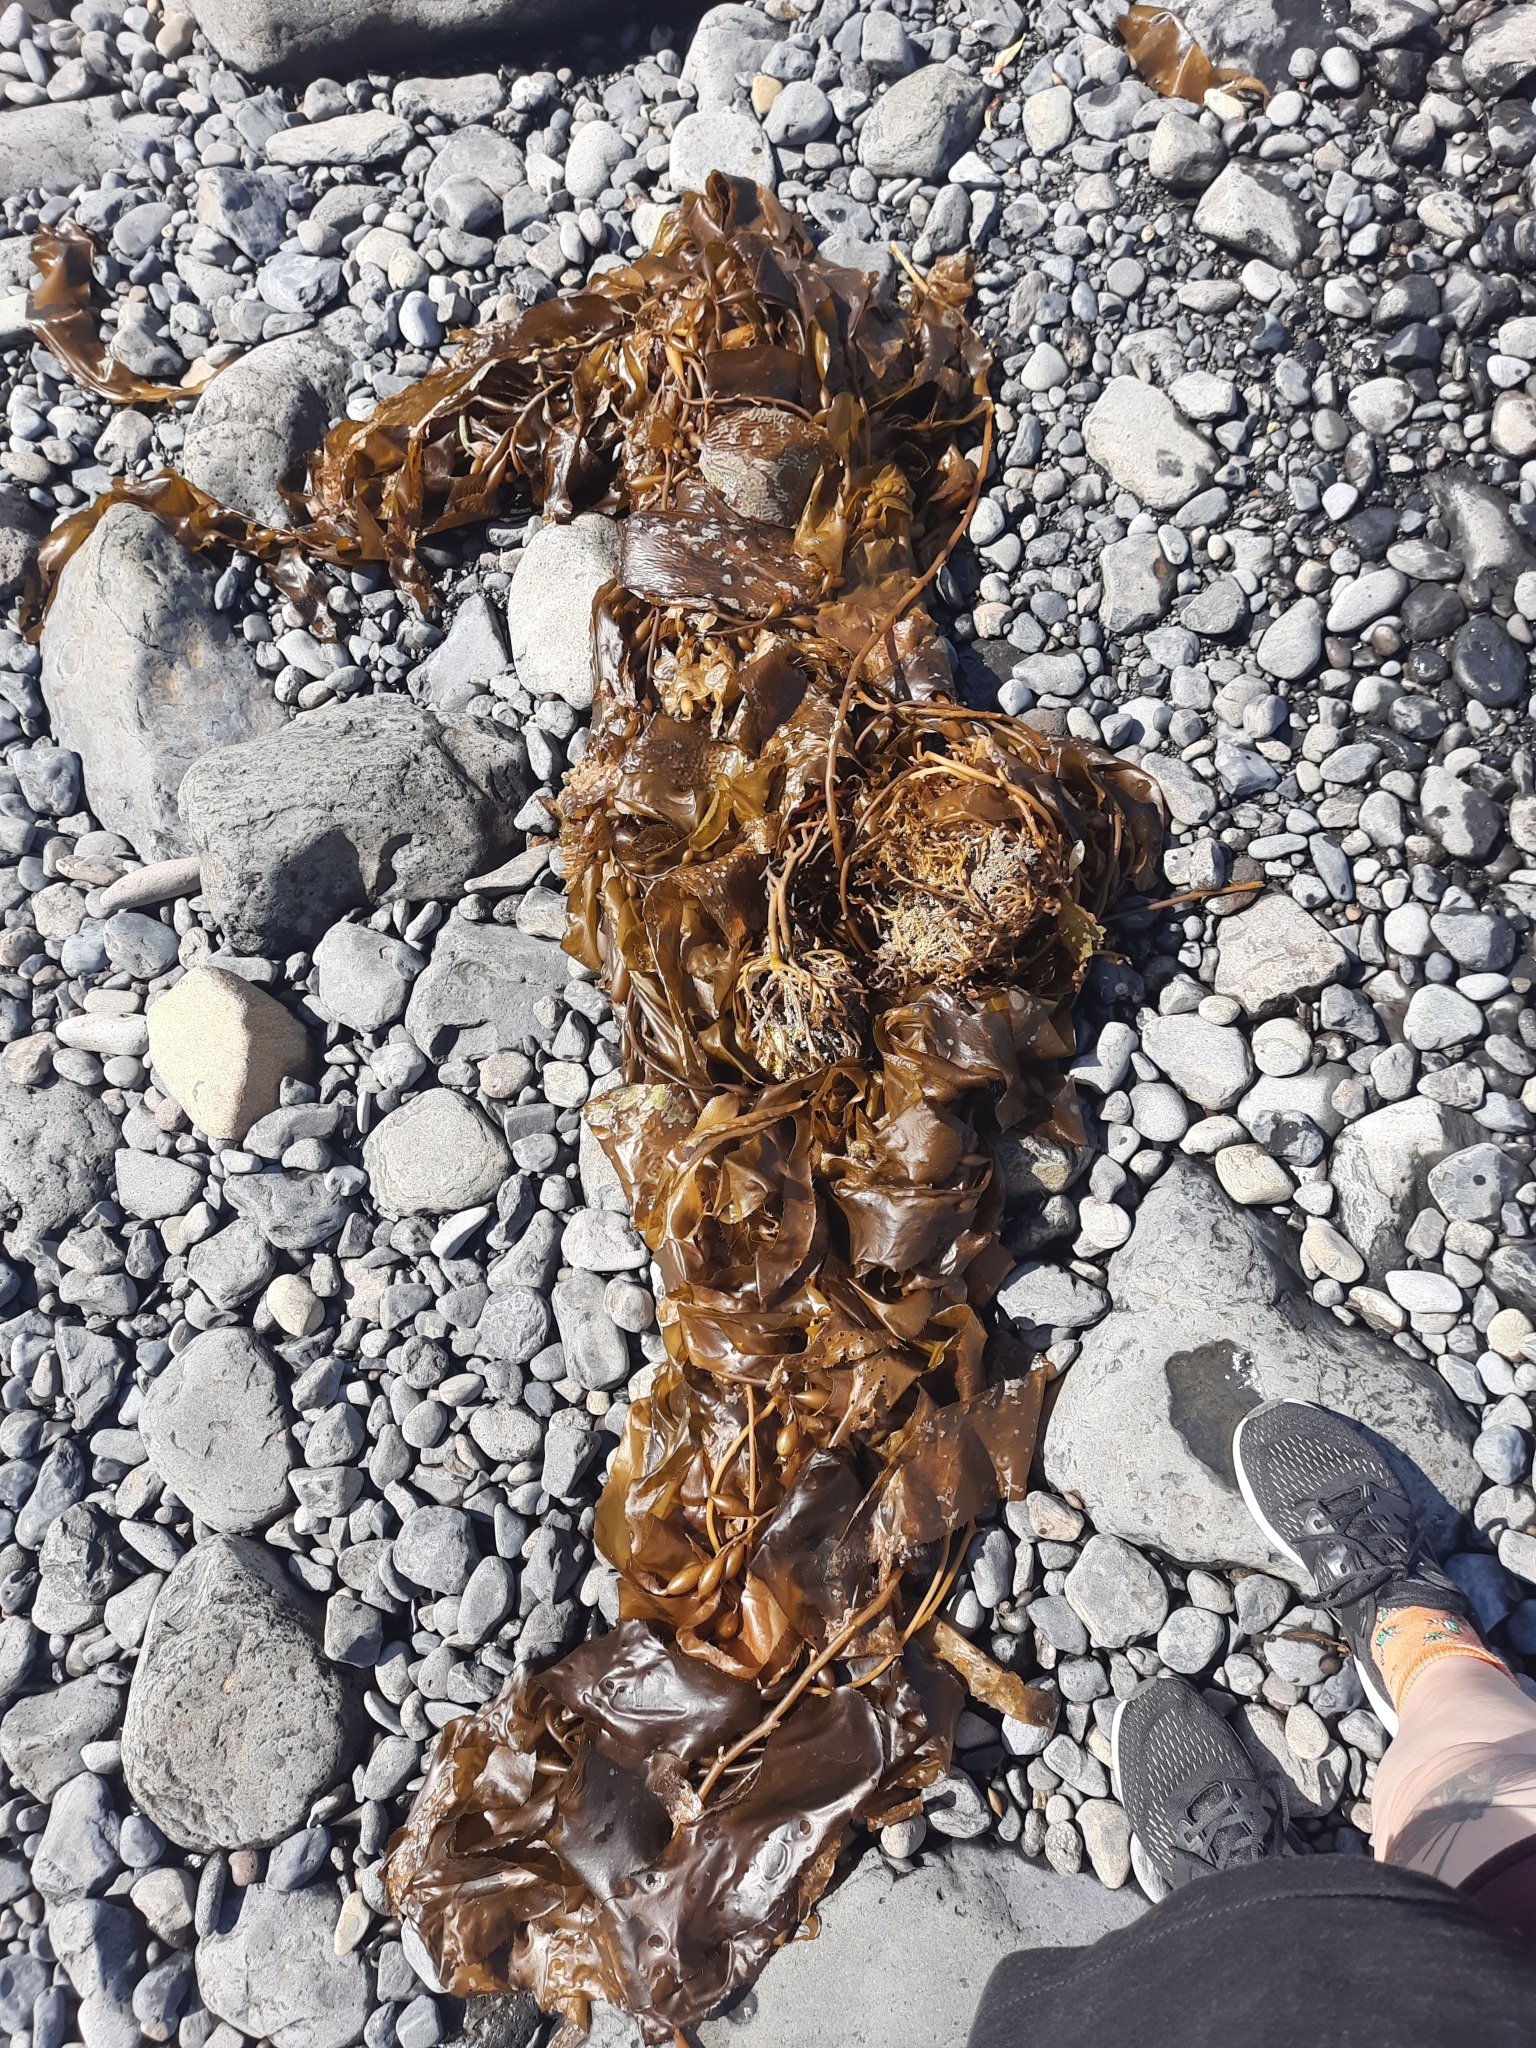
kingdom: Chromista
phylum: Ochrophyta
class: Phaeophyceae
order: Laminariales
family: Laminariaceae
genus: Macrocystis
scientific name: Macrocystis pyrifera
